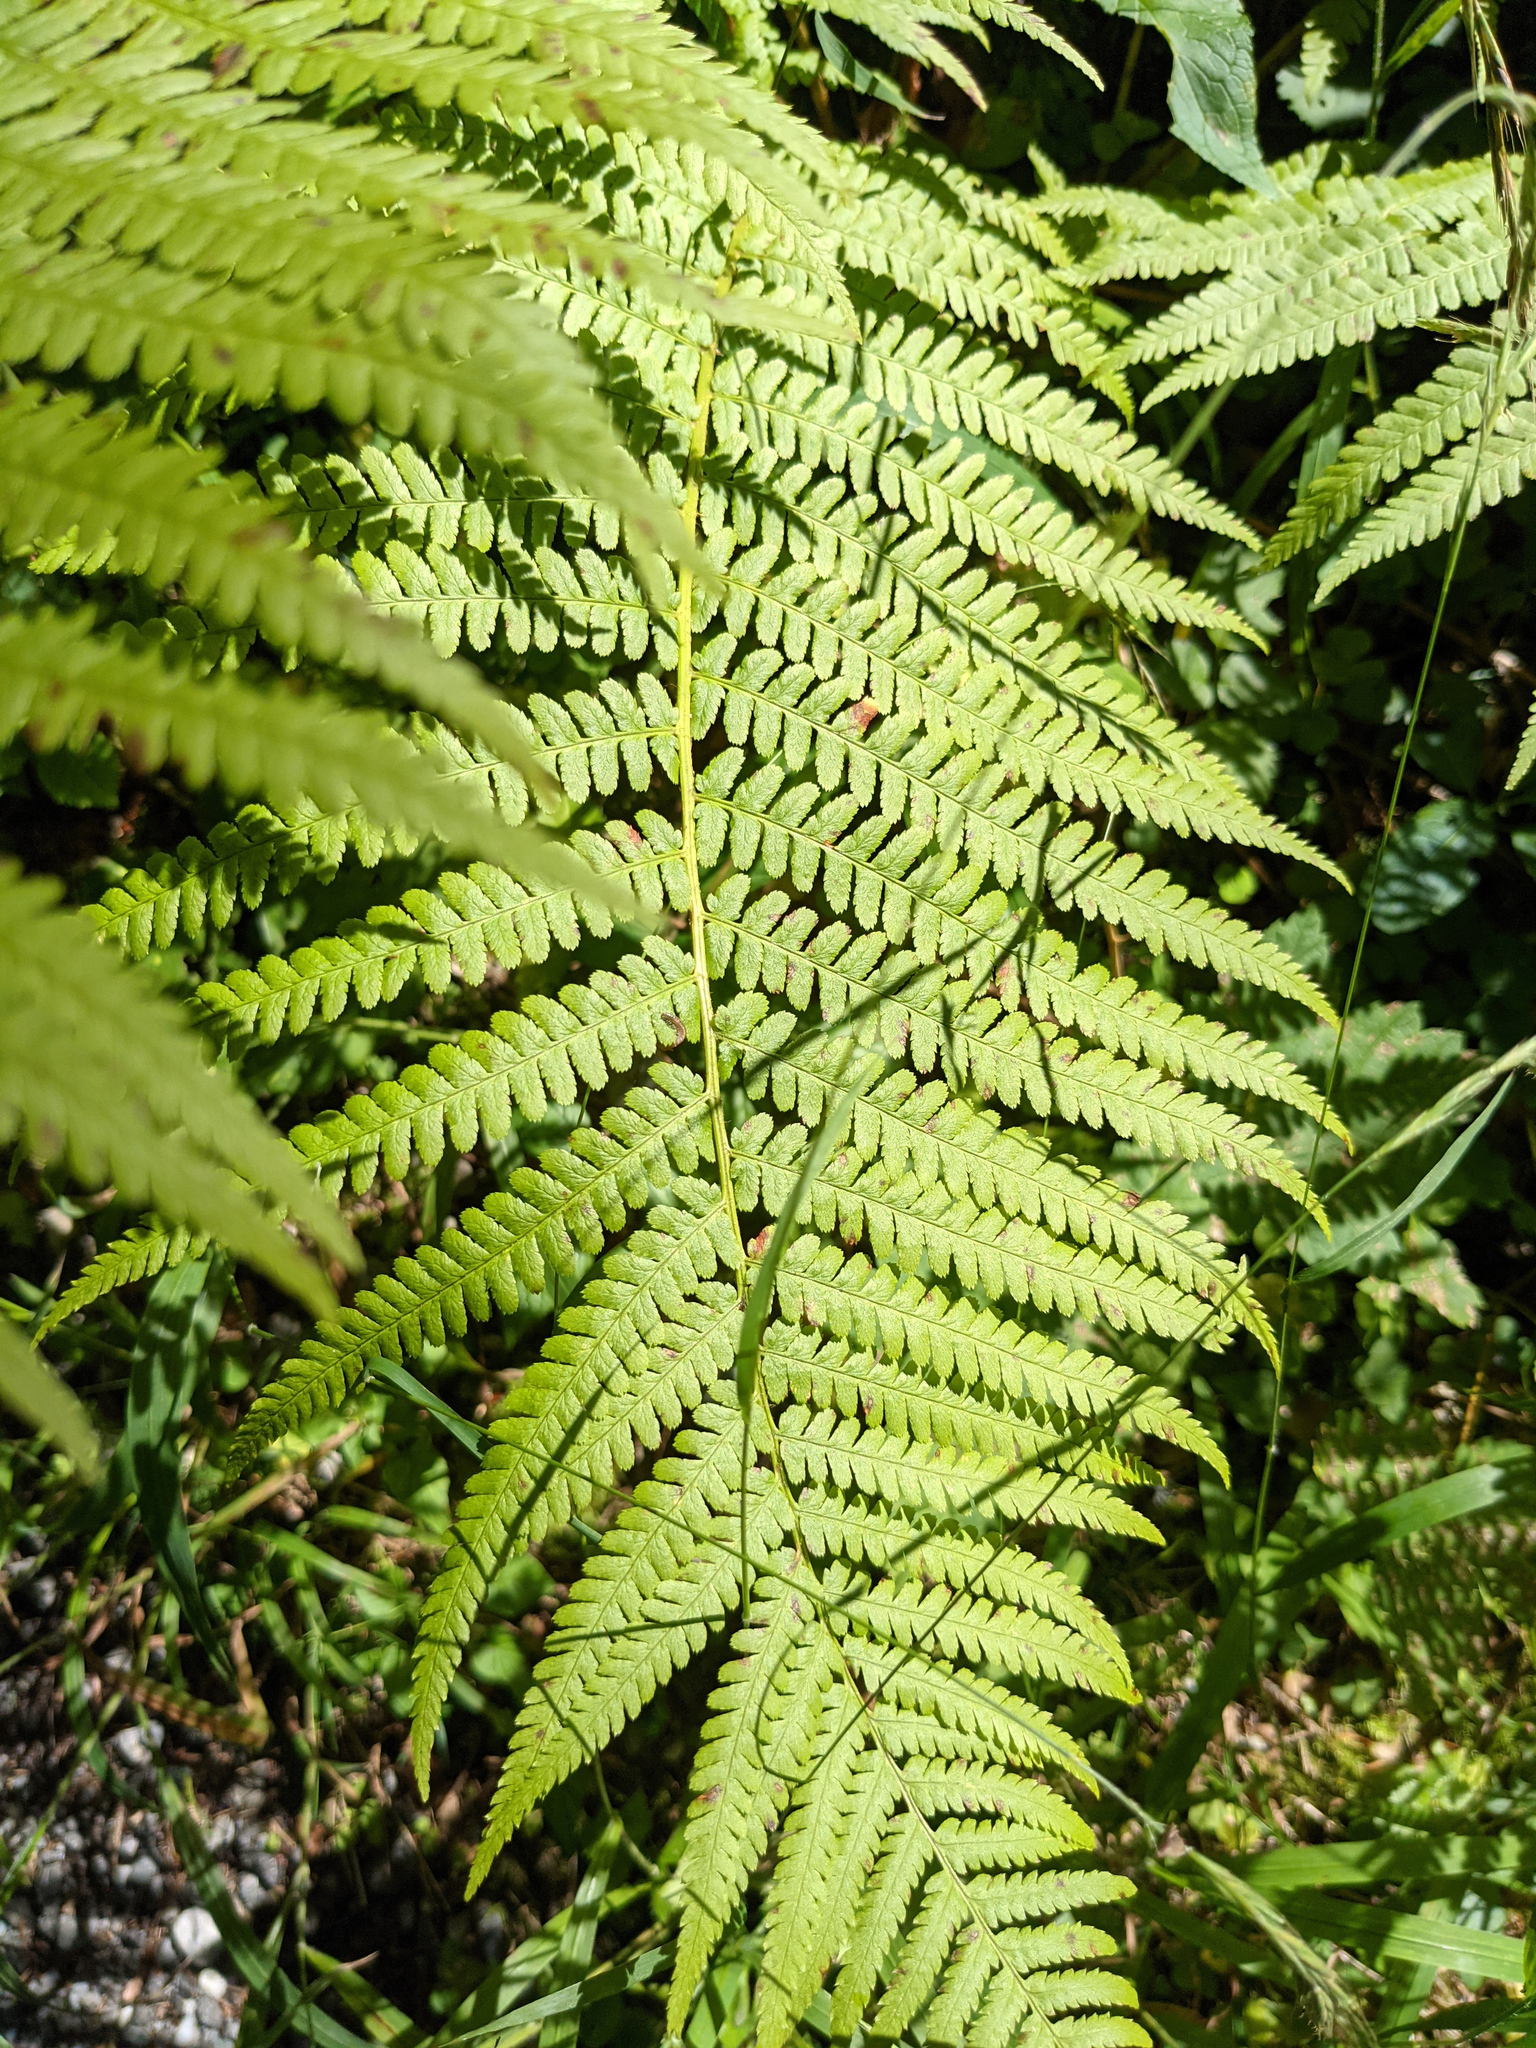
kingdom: Plantae
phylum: Tracheophyta
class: Polypodiopsida
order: Polypodiales
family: Dryopteridaceae
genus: Dryopteris
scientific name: Dryopteris filix-mas
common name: Male fern
